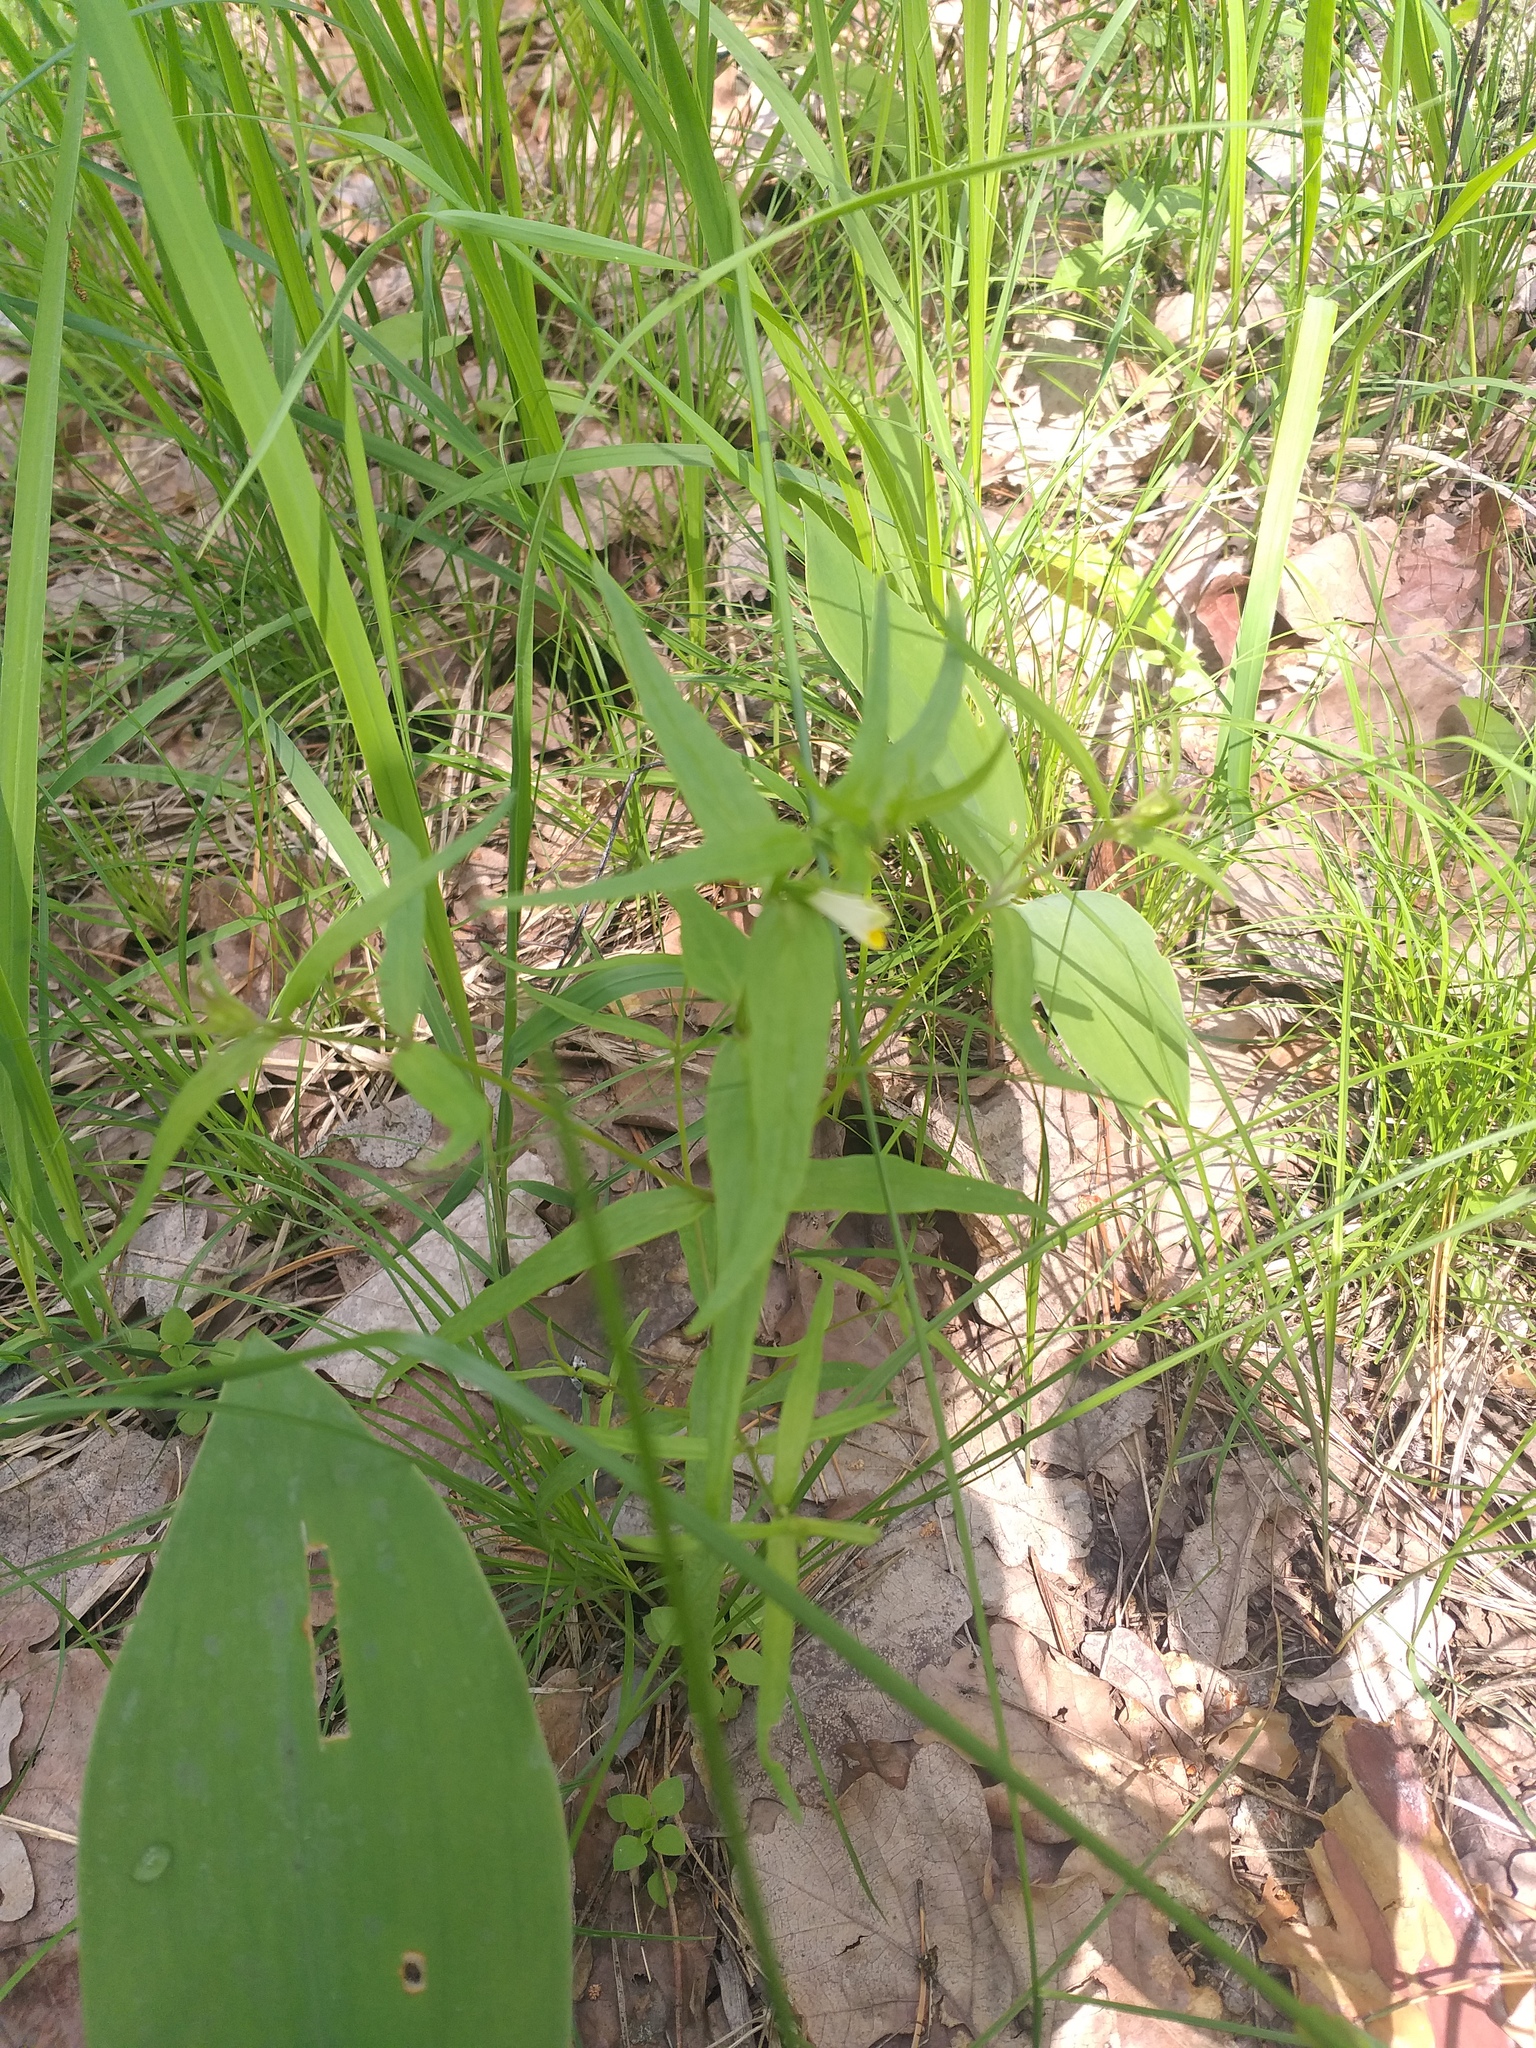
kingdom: Plantae
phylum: Tracheophyta
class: Magnoliopsida
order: Lamiales
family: Orobanchaceae
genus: Melampyrum
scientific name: Melampyrum pratense
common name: Common cow-wheat
